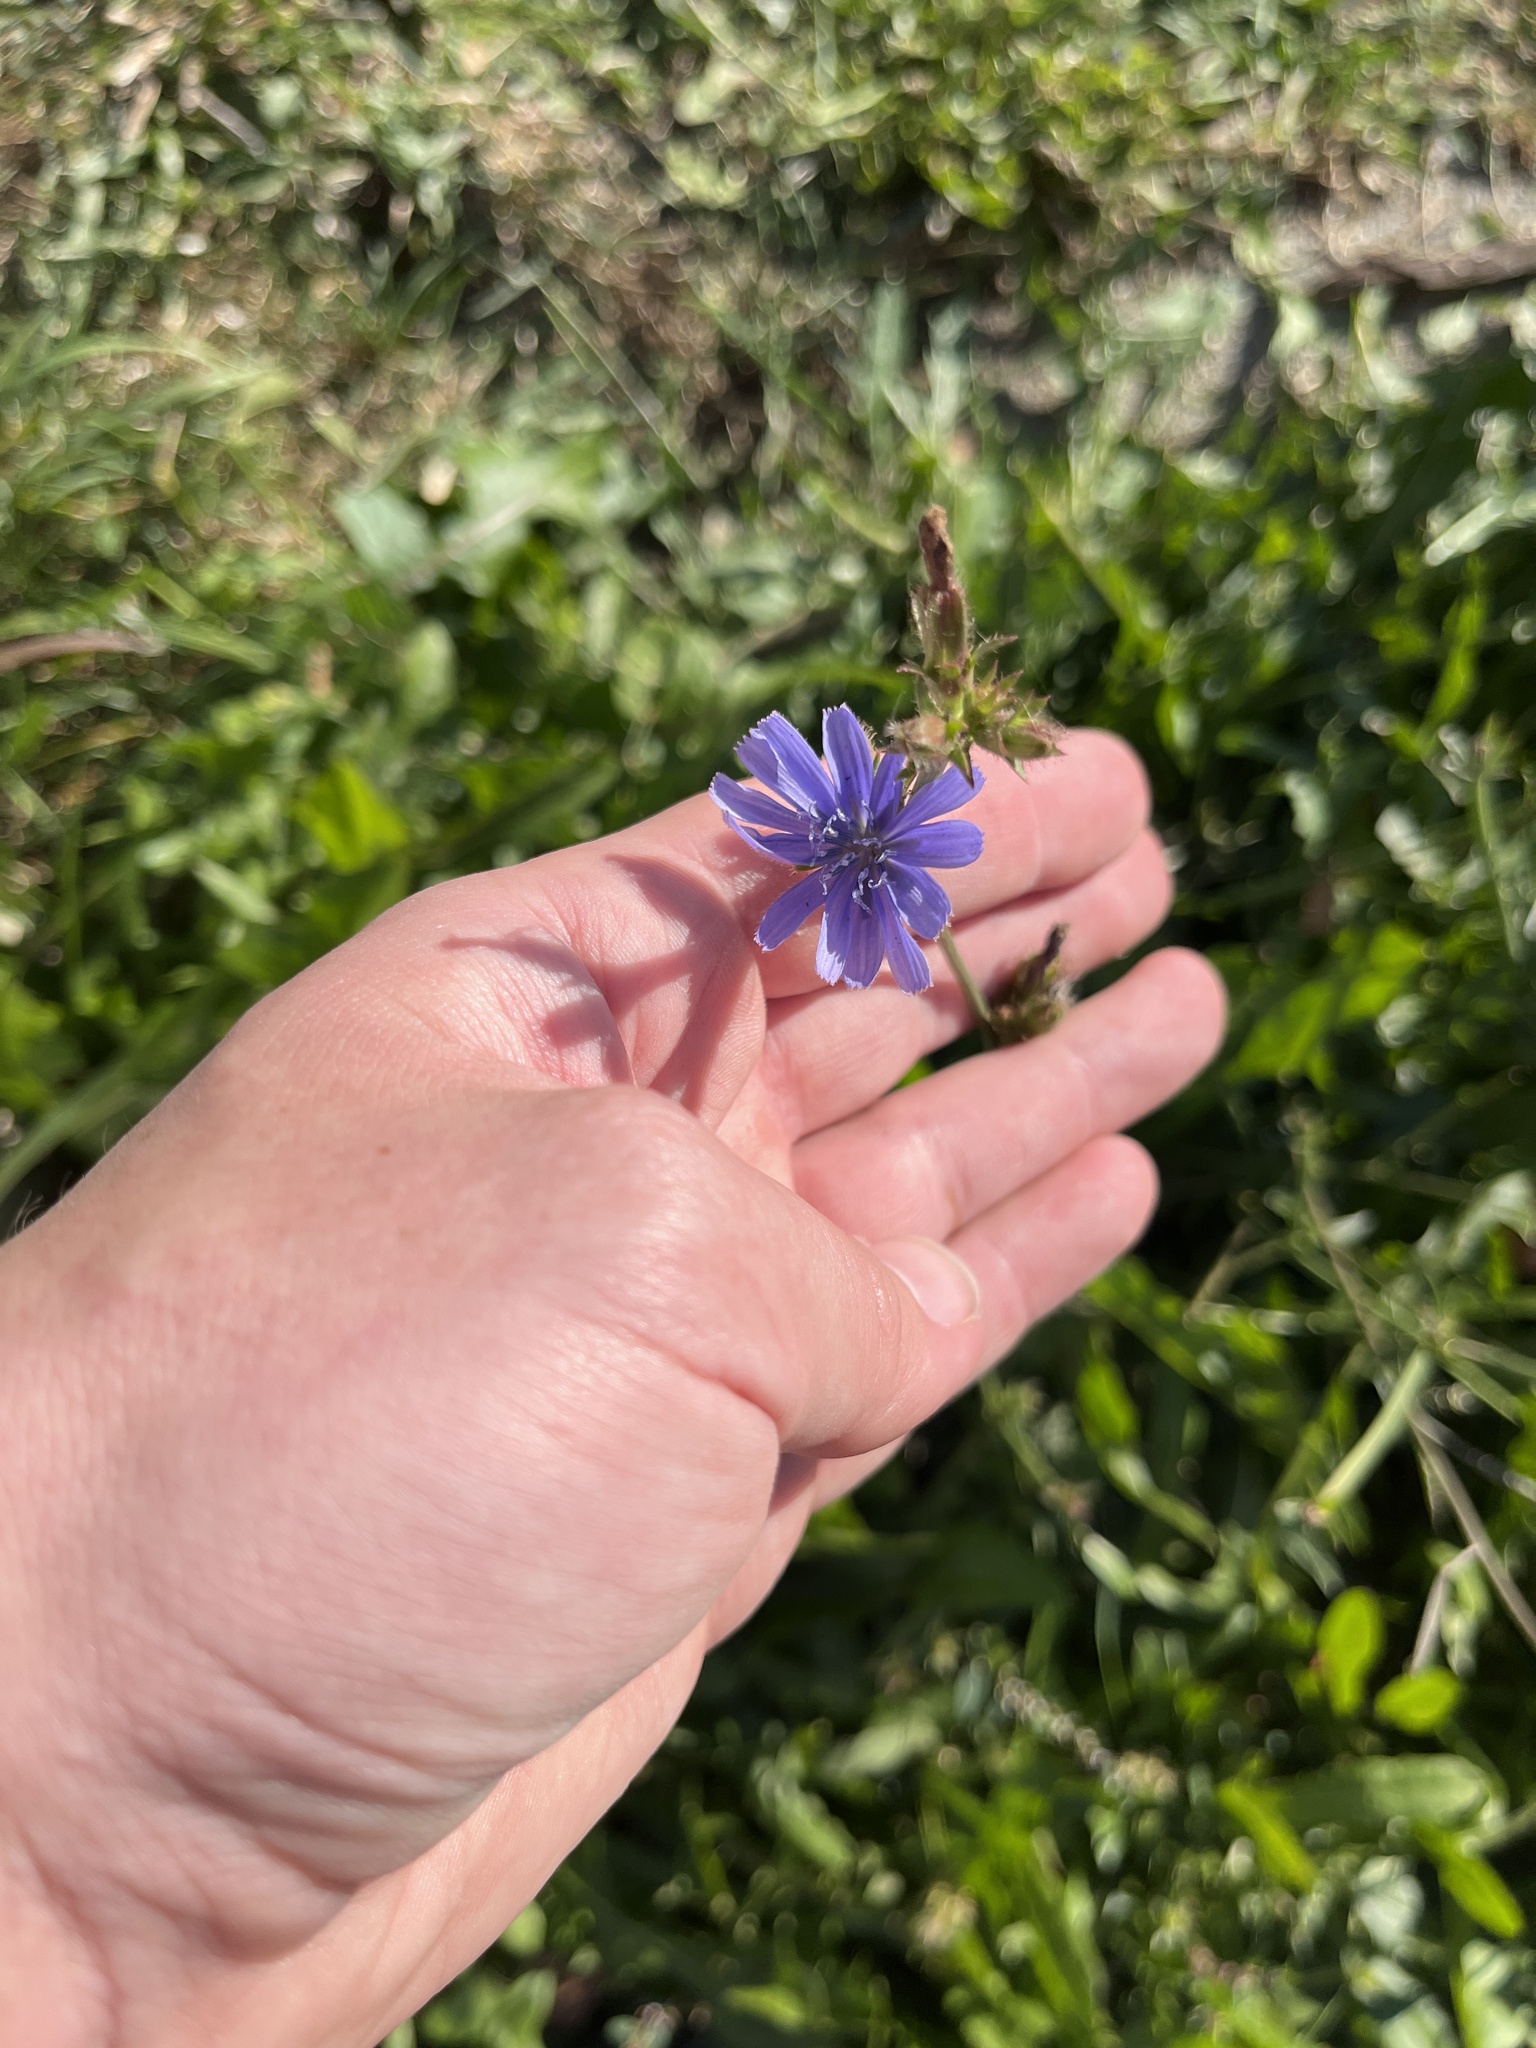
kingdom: Plantae
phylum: Tracheophyta
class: Magnoliopsida
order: Asterales
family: Asteraceae
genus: Cichorium
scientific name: Cichorium intybus
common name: Chicory
